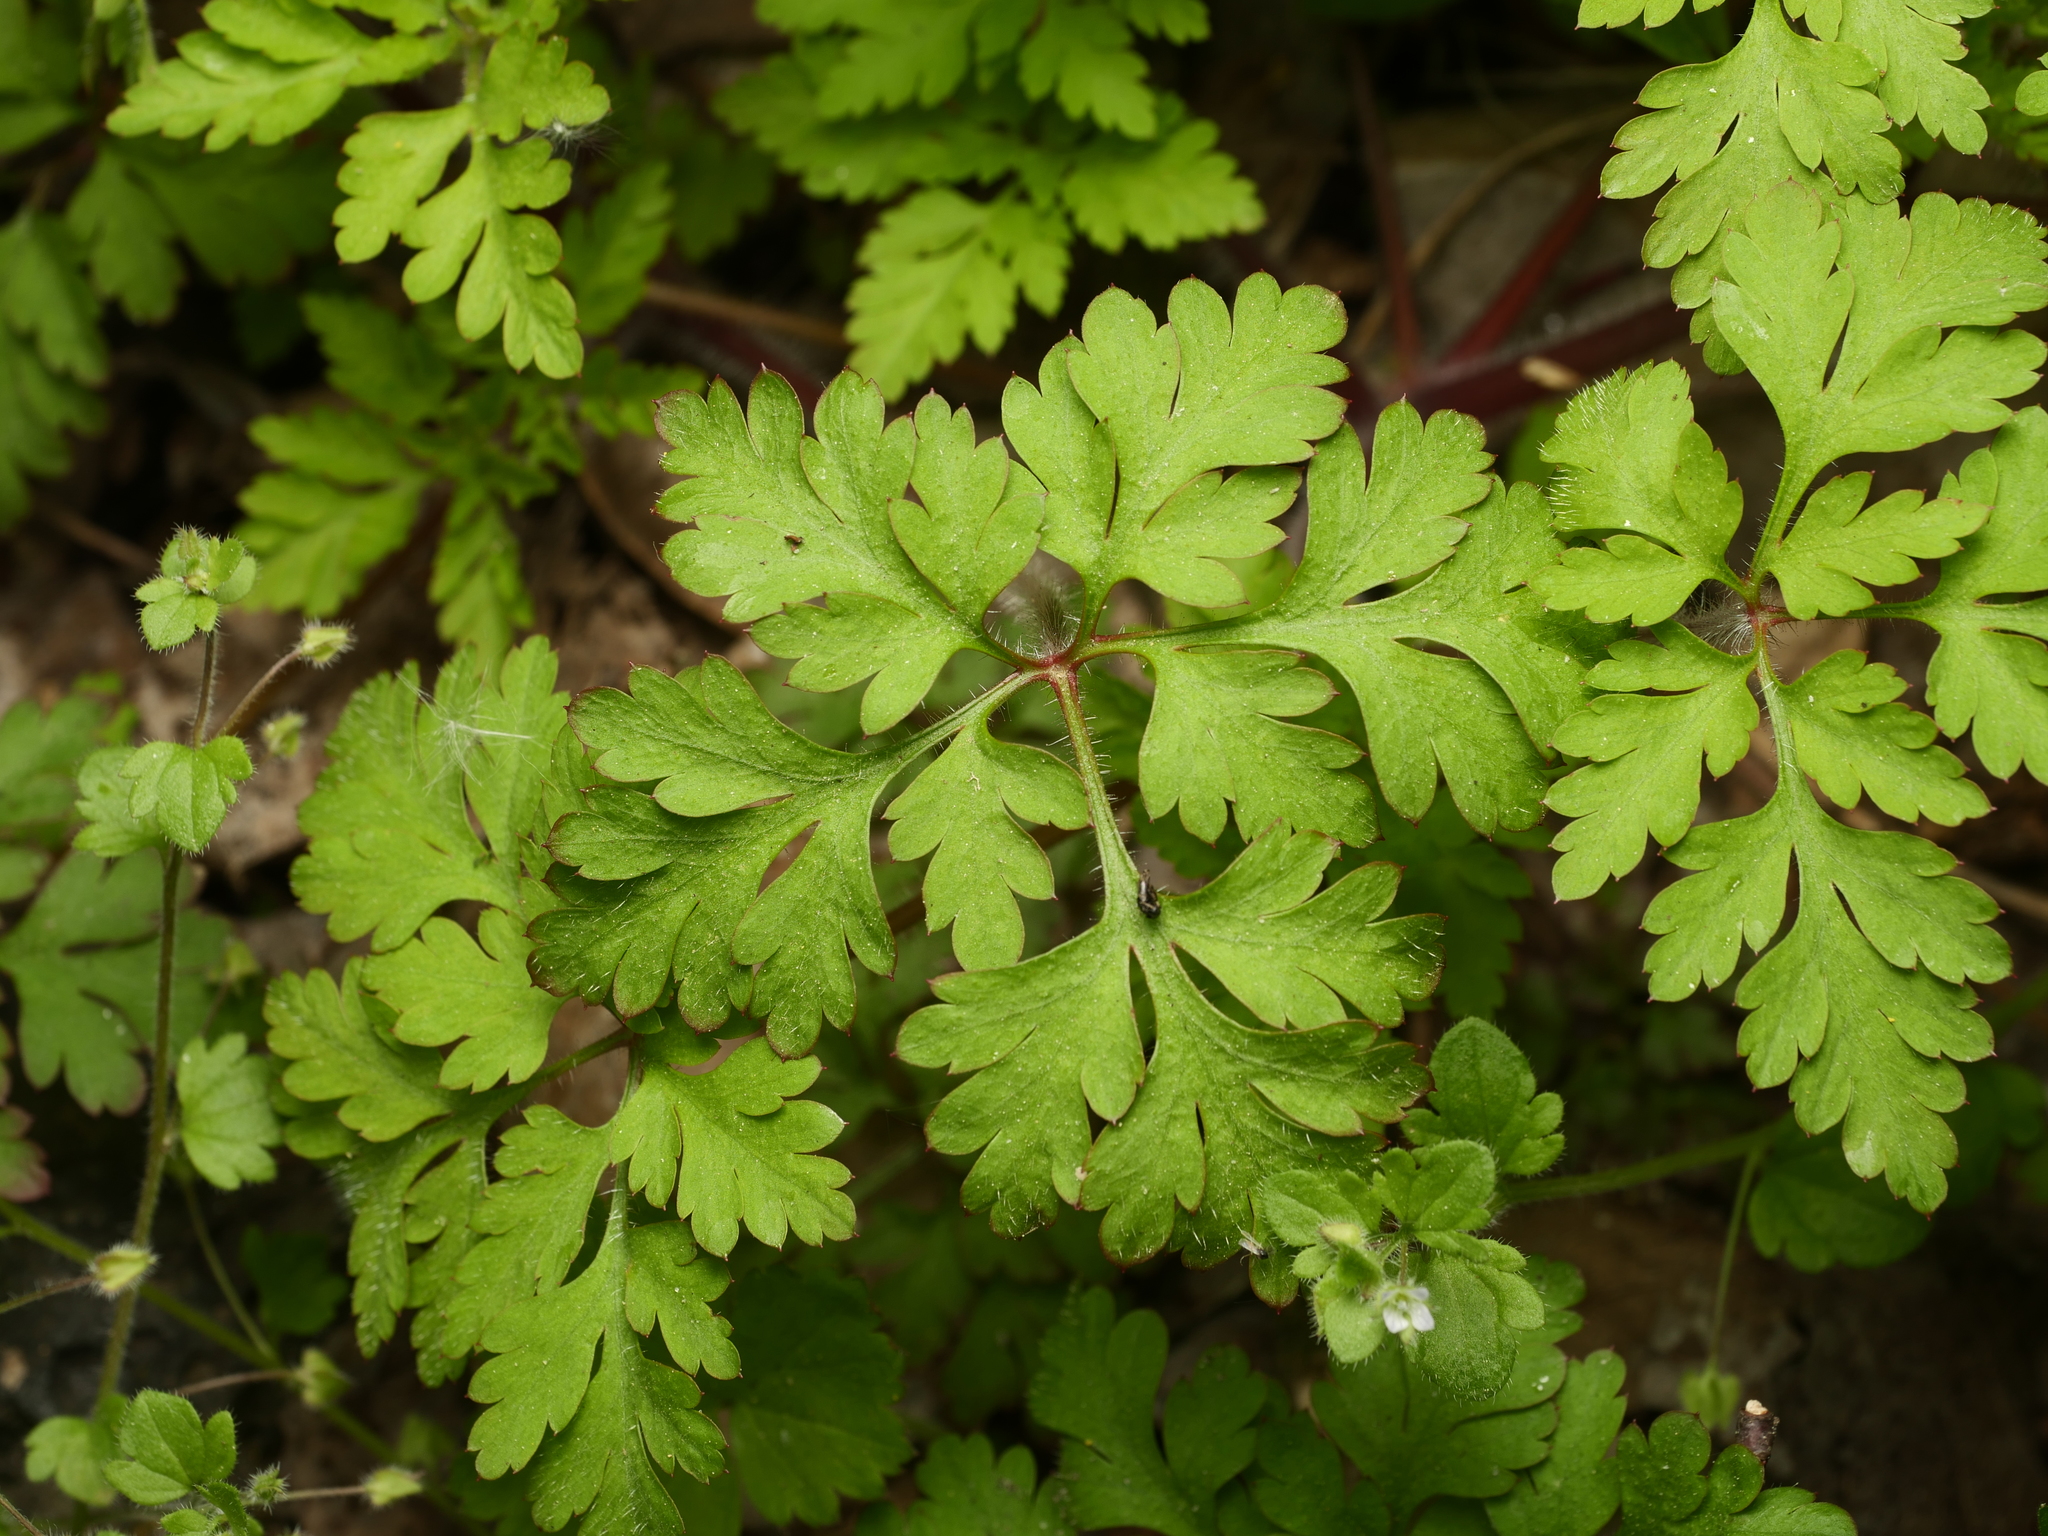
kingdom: Plantae
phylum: Tracheophyta
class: Magnoliopsida
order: Geraniales
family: Geraniaceae
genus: Geranium
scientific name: Geranium robertianum
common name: Herb-robert
